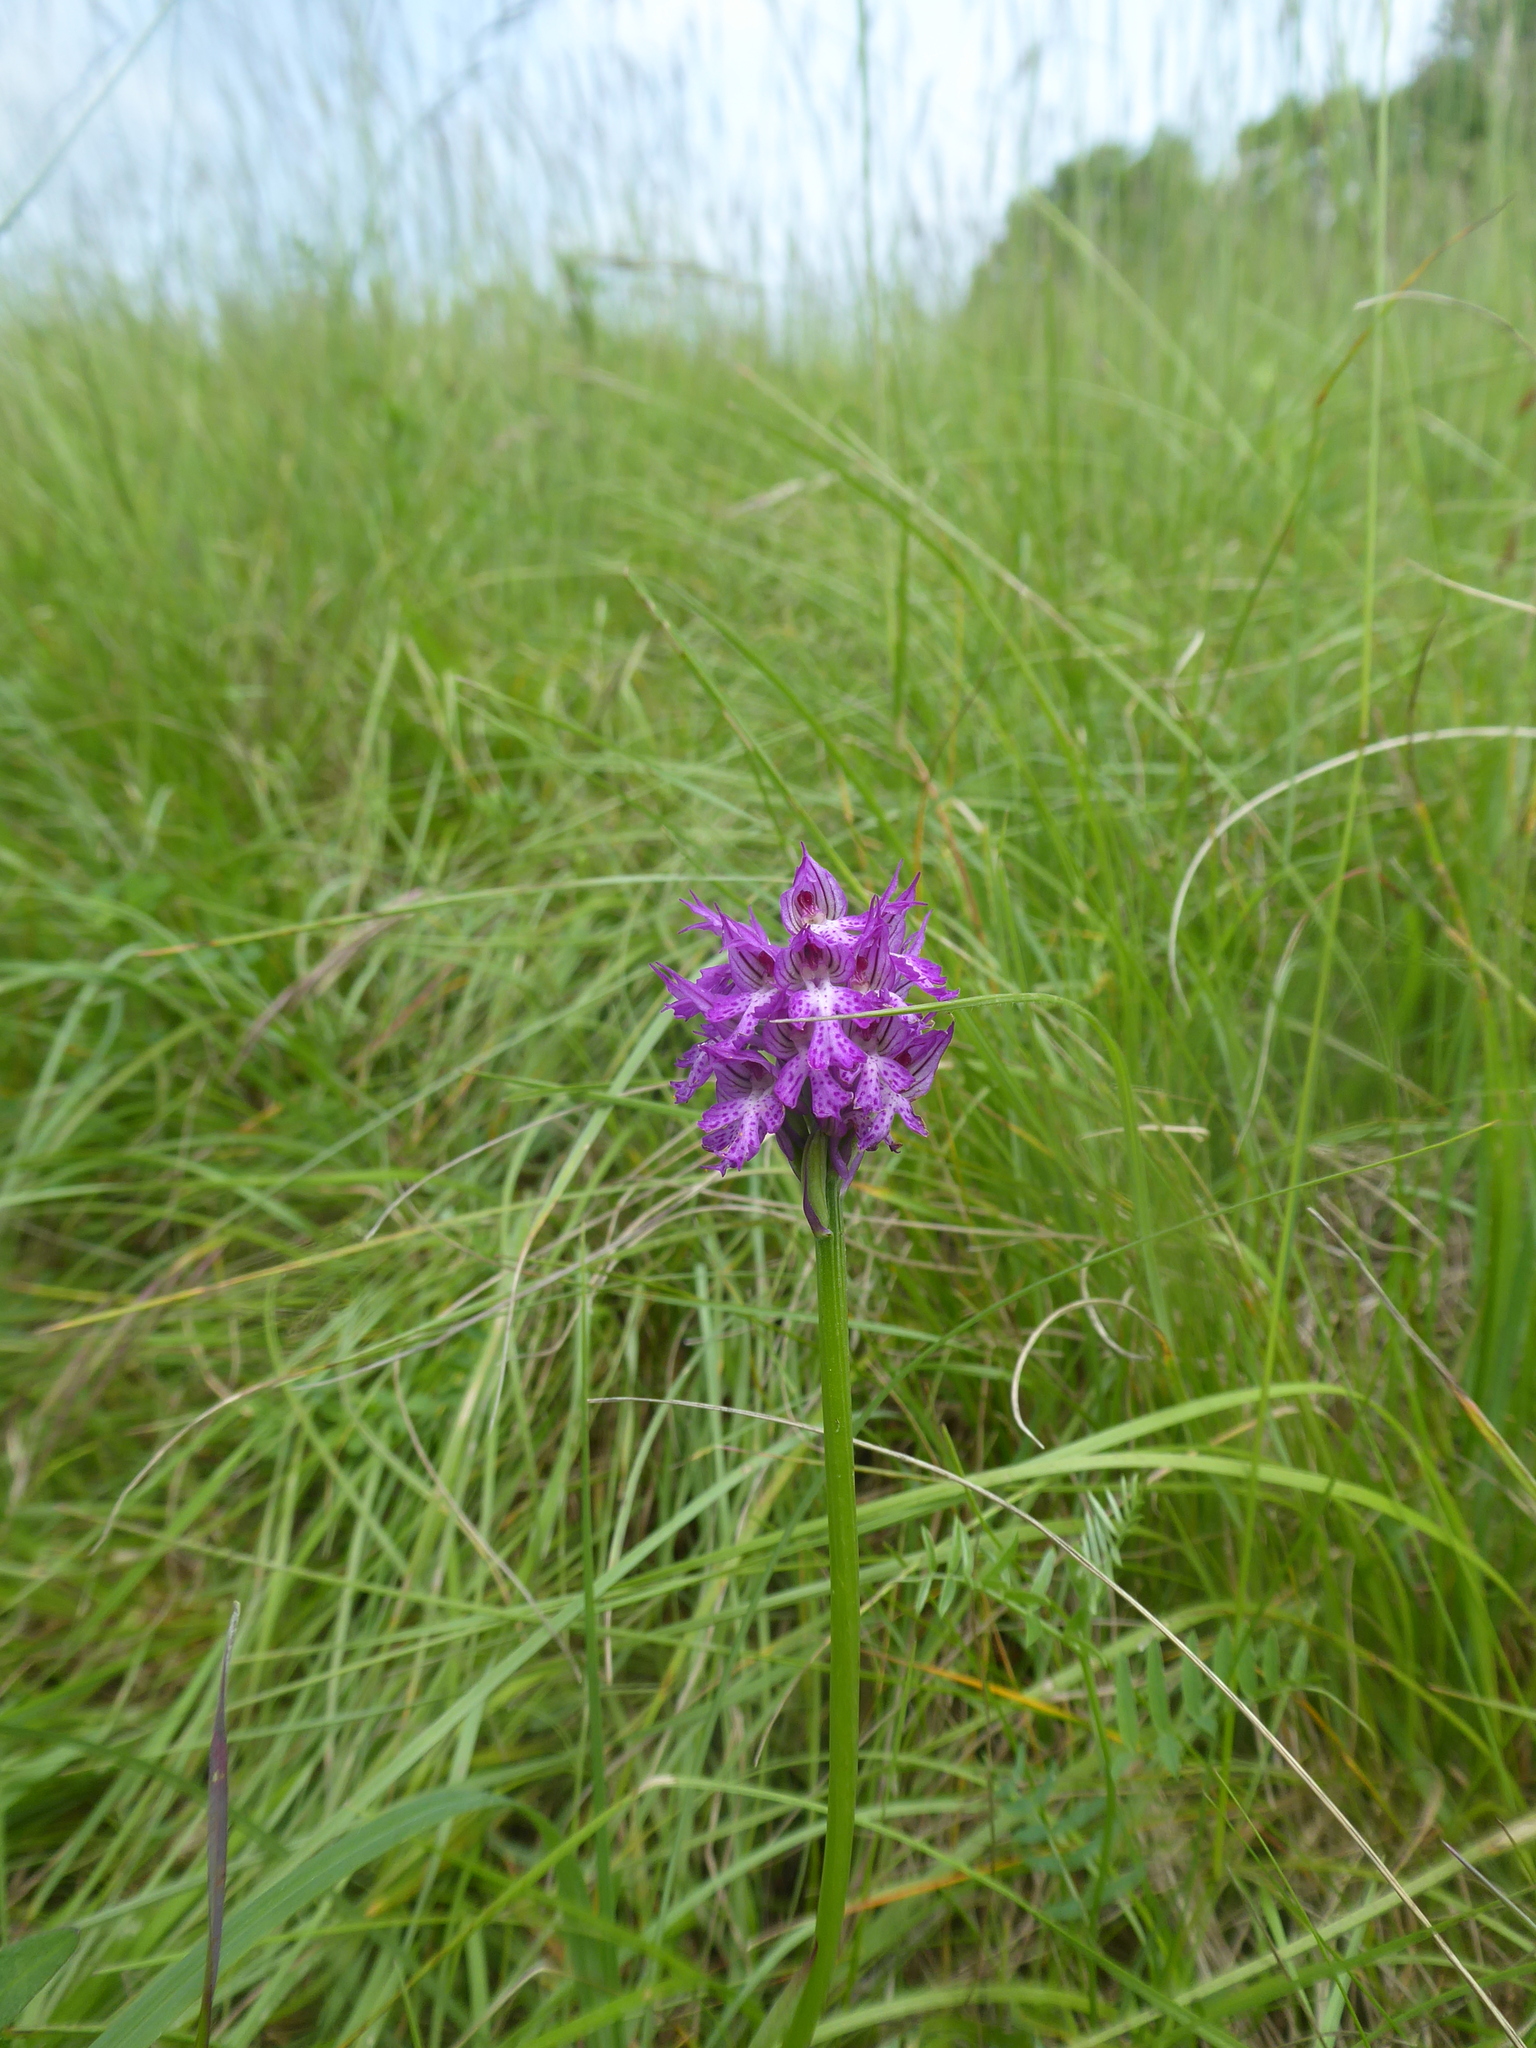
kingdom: Plantae
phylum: Tracheophyta
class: Liliopsida
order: Asparagales
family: Orchidaceae
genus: Neotinea
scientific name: Neotinea tridentata
